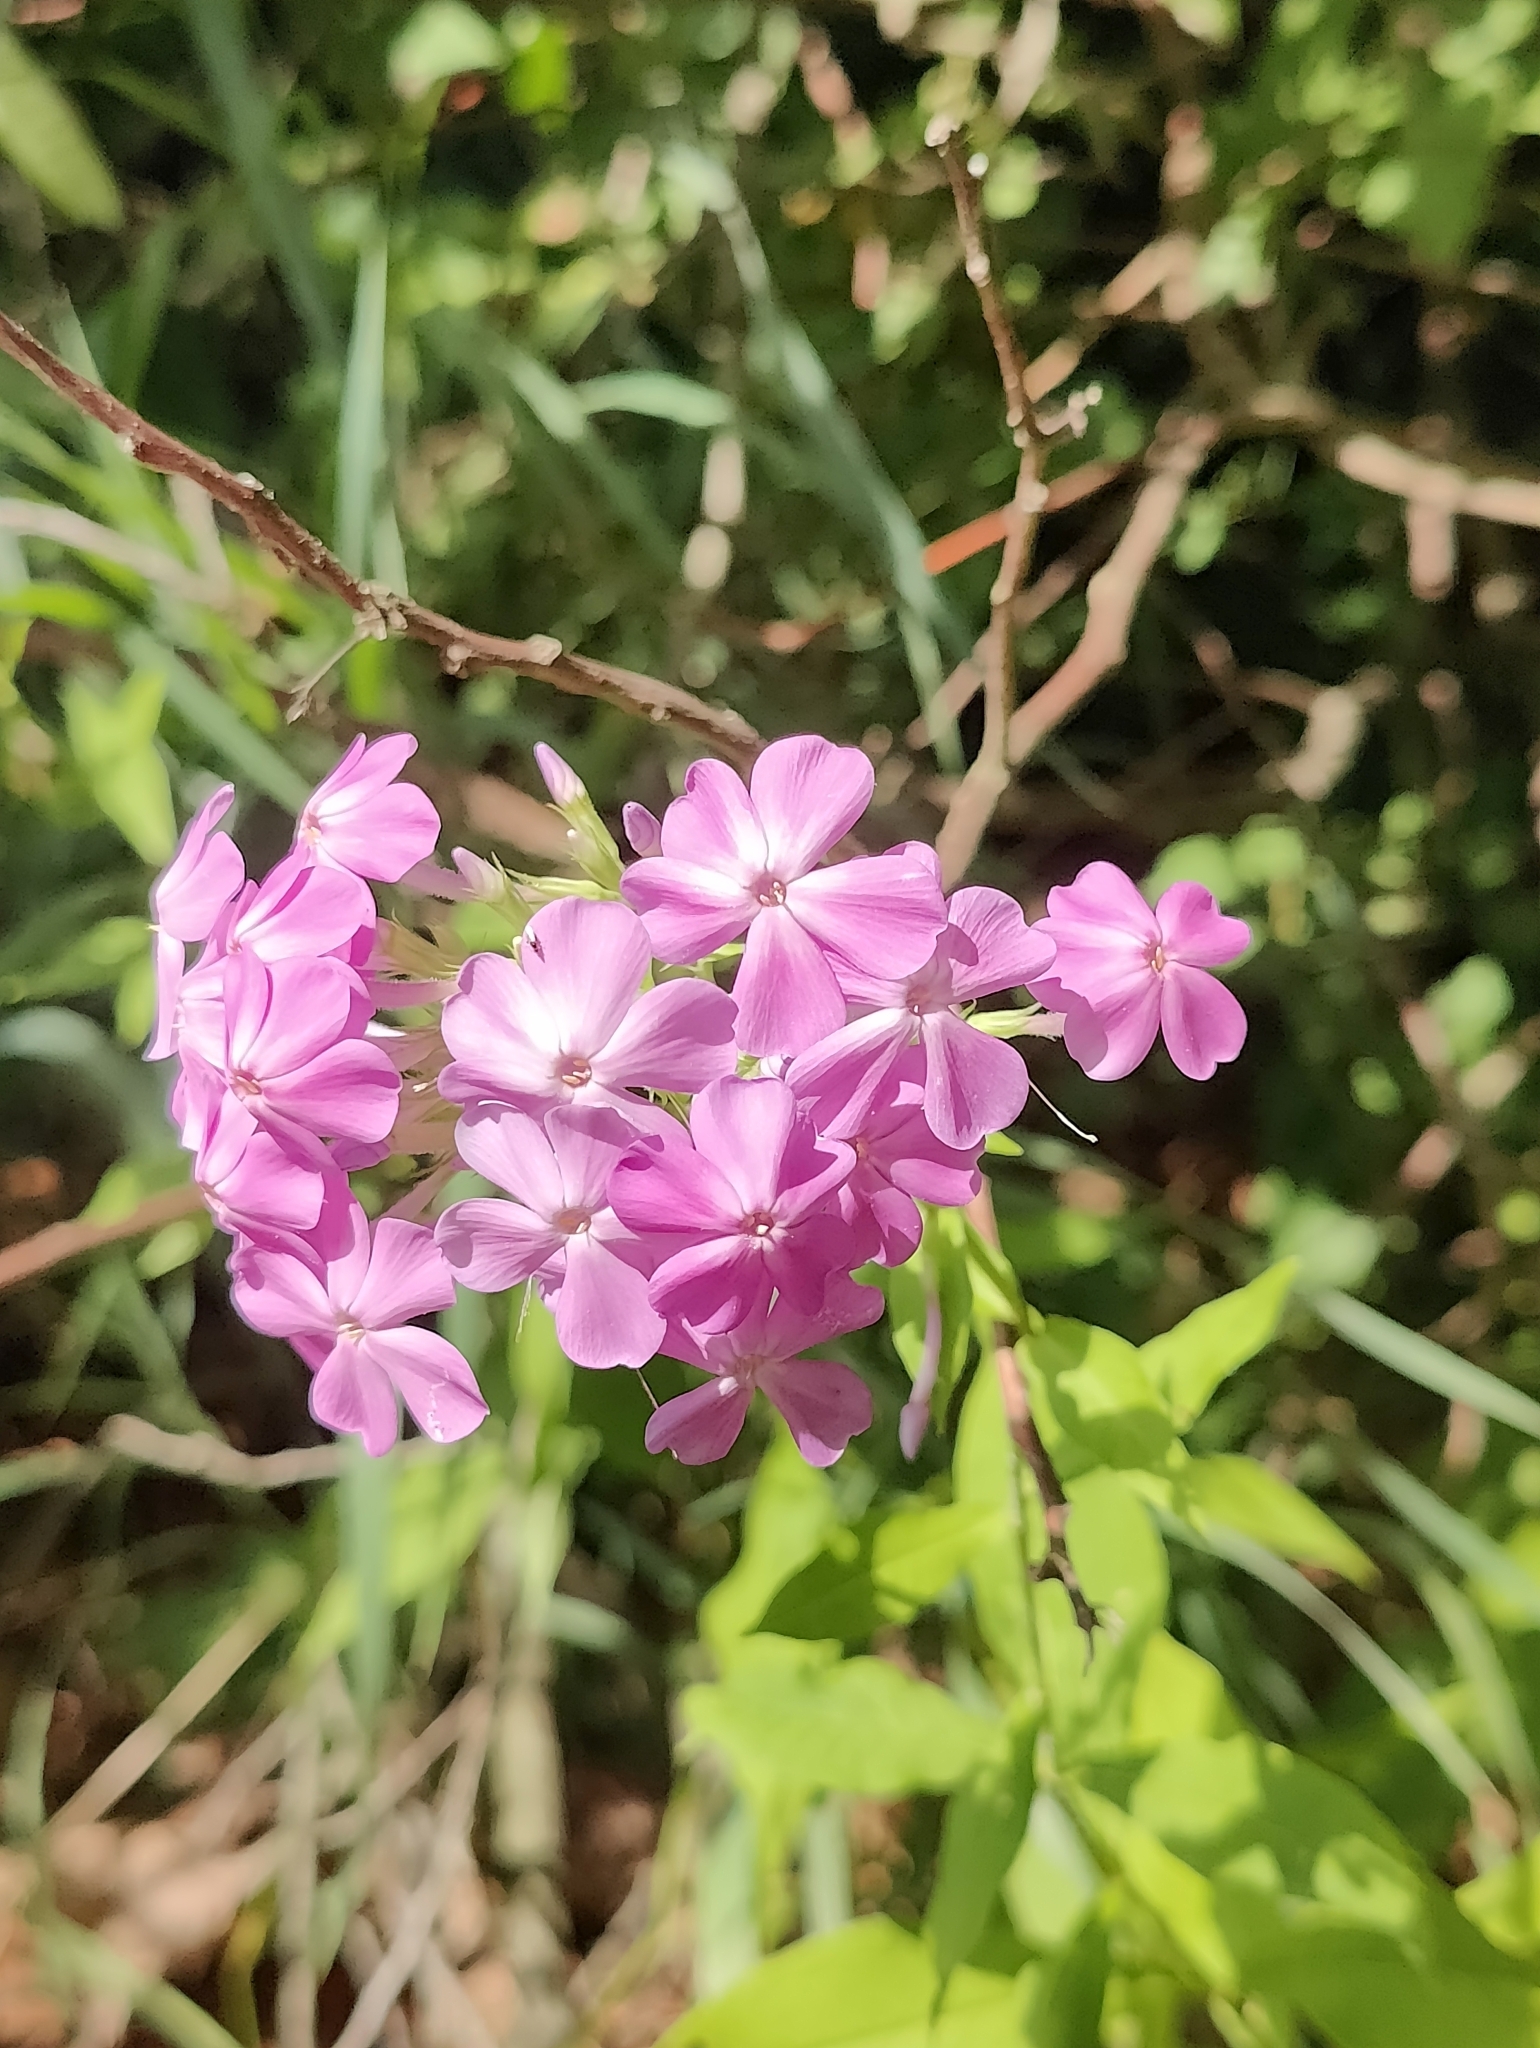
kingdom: Plantae
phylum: Tracheophyta
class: Magnoliopsida
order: Ericales
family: Polemoniaceae
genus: Phlox
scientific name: Phlox paniculata
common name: Fall phlox
